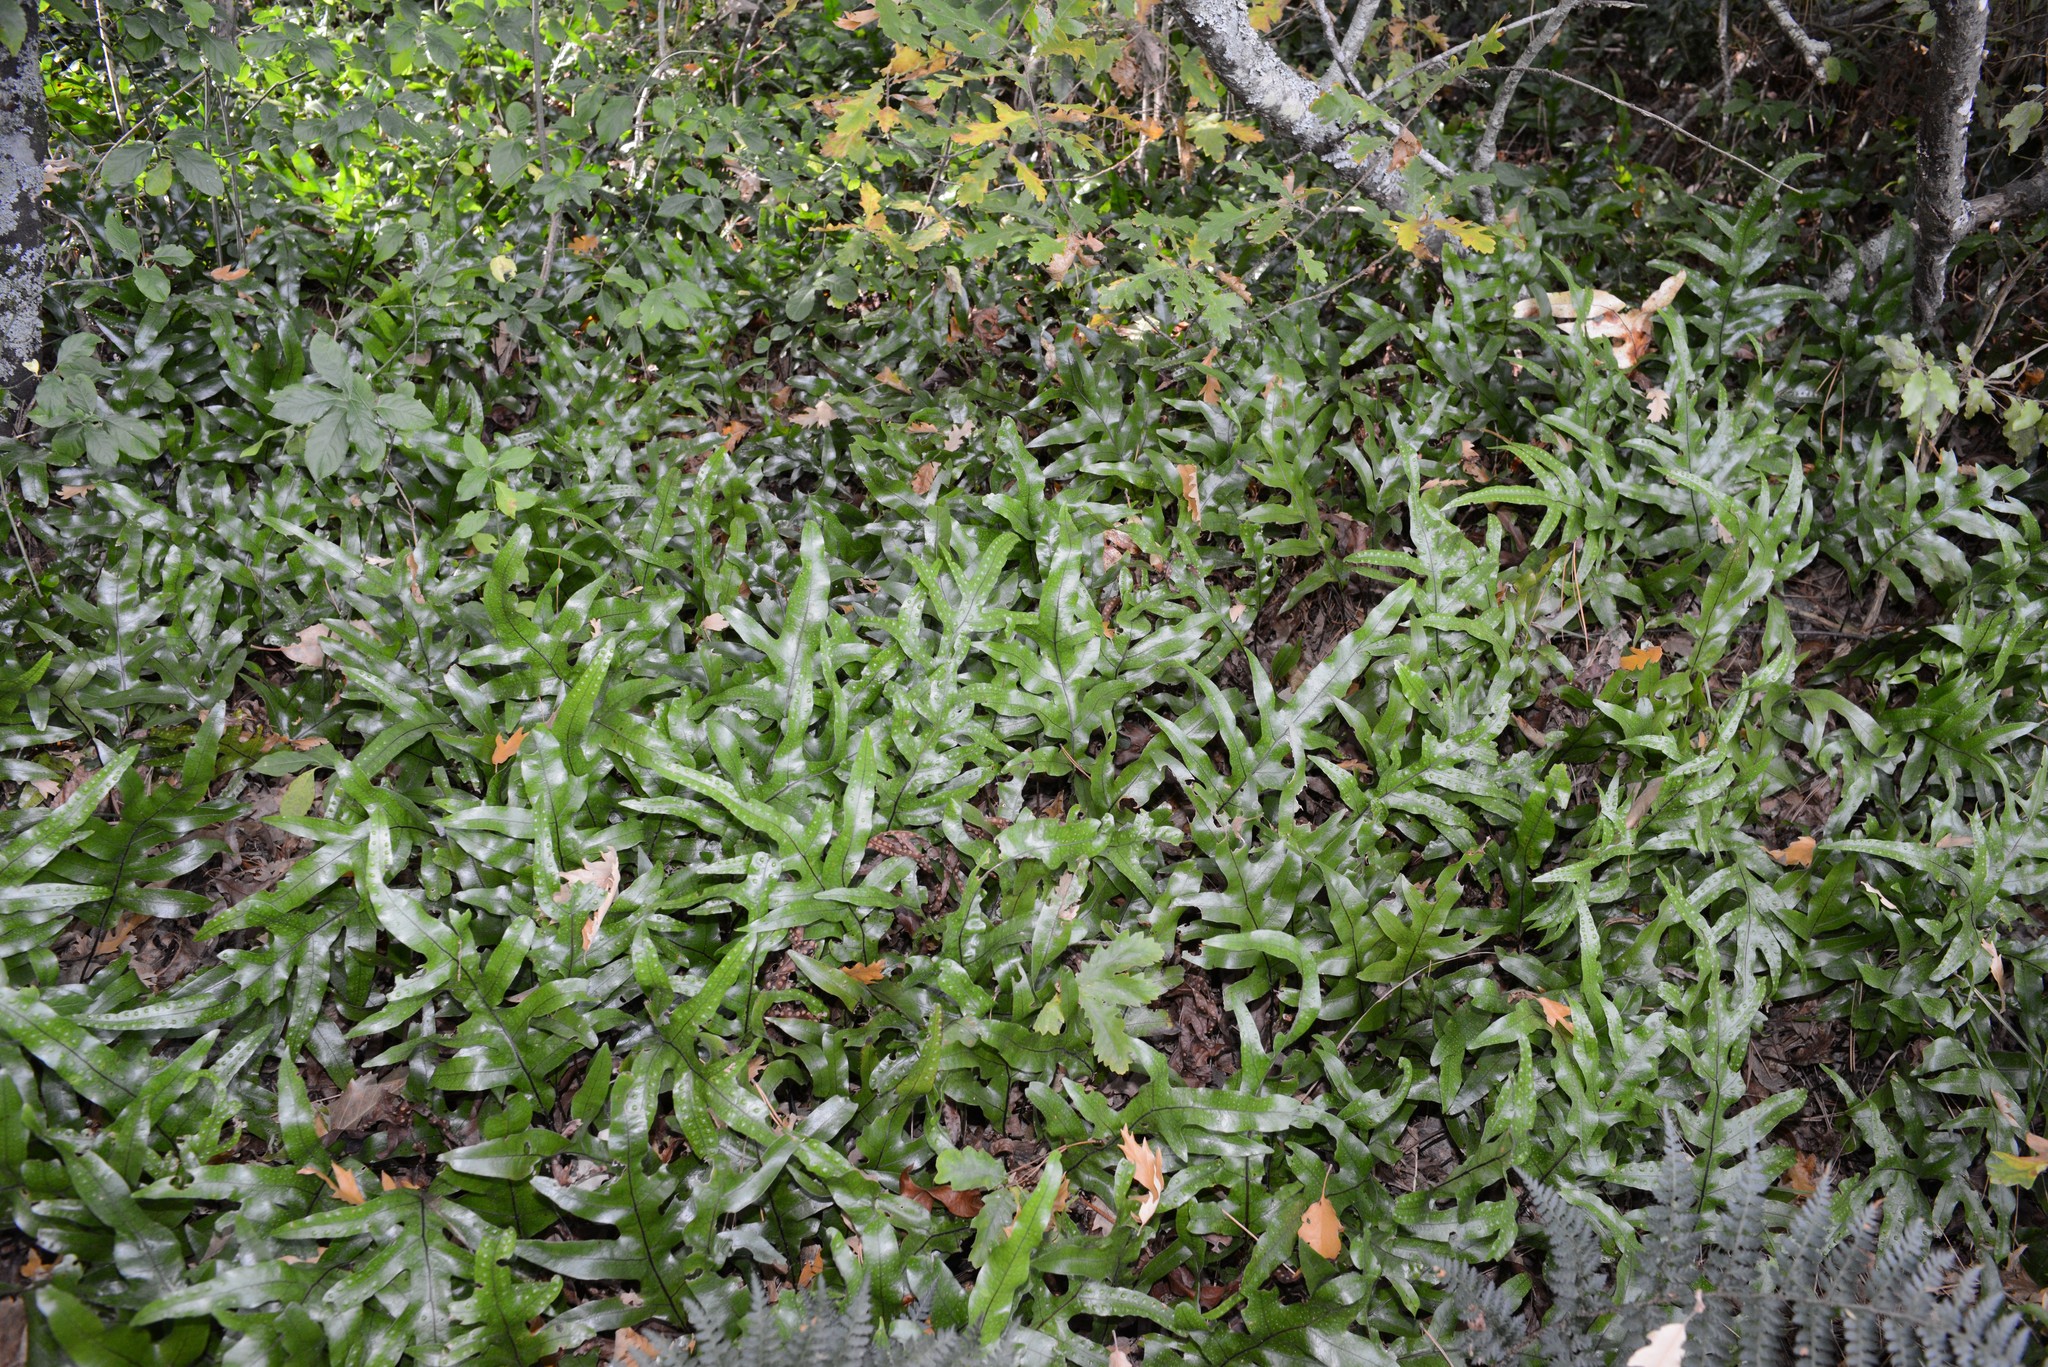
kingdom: Plantae
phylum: Tracheophyta
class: Polypodiopsida
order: Polypodiales
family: Polypodiaceae
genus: Lecanopteris
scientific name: Lecanopteris pustulata
